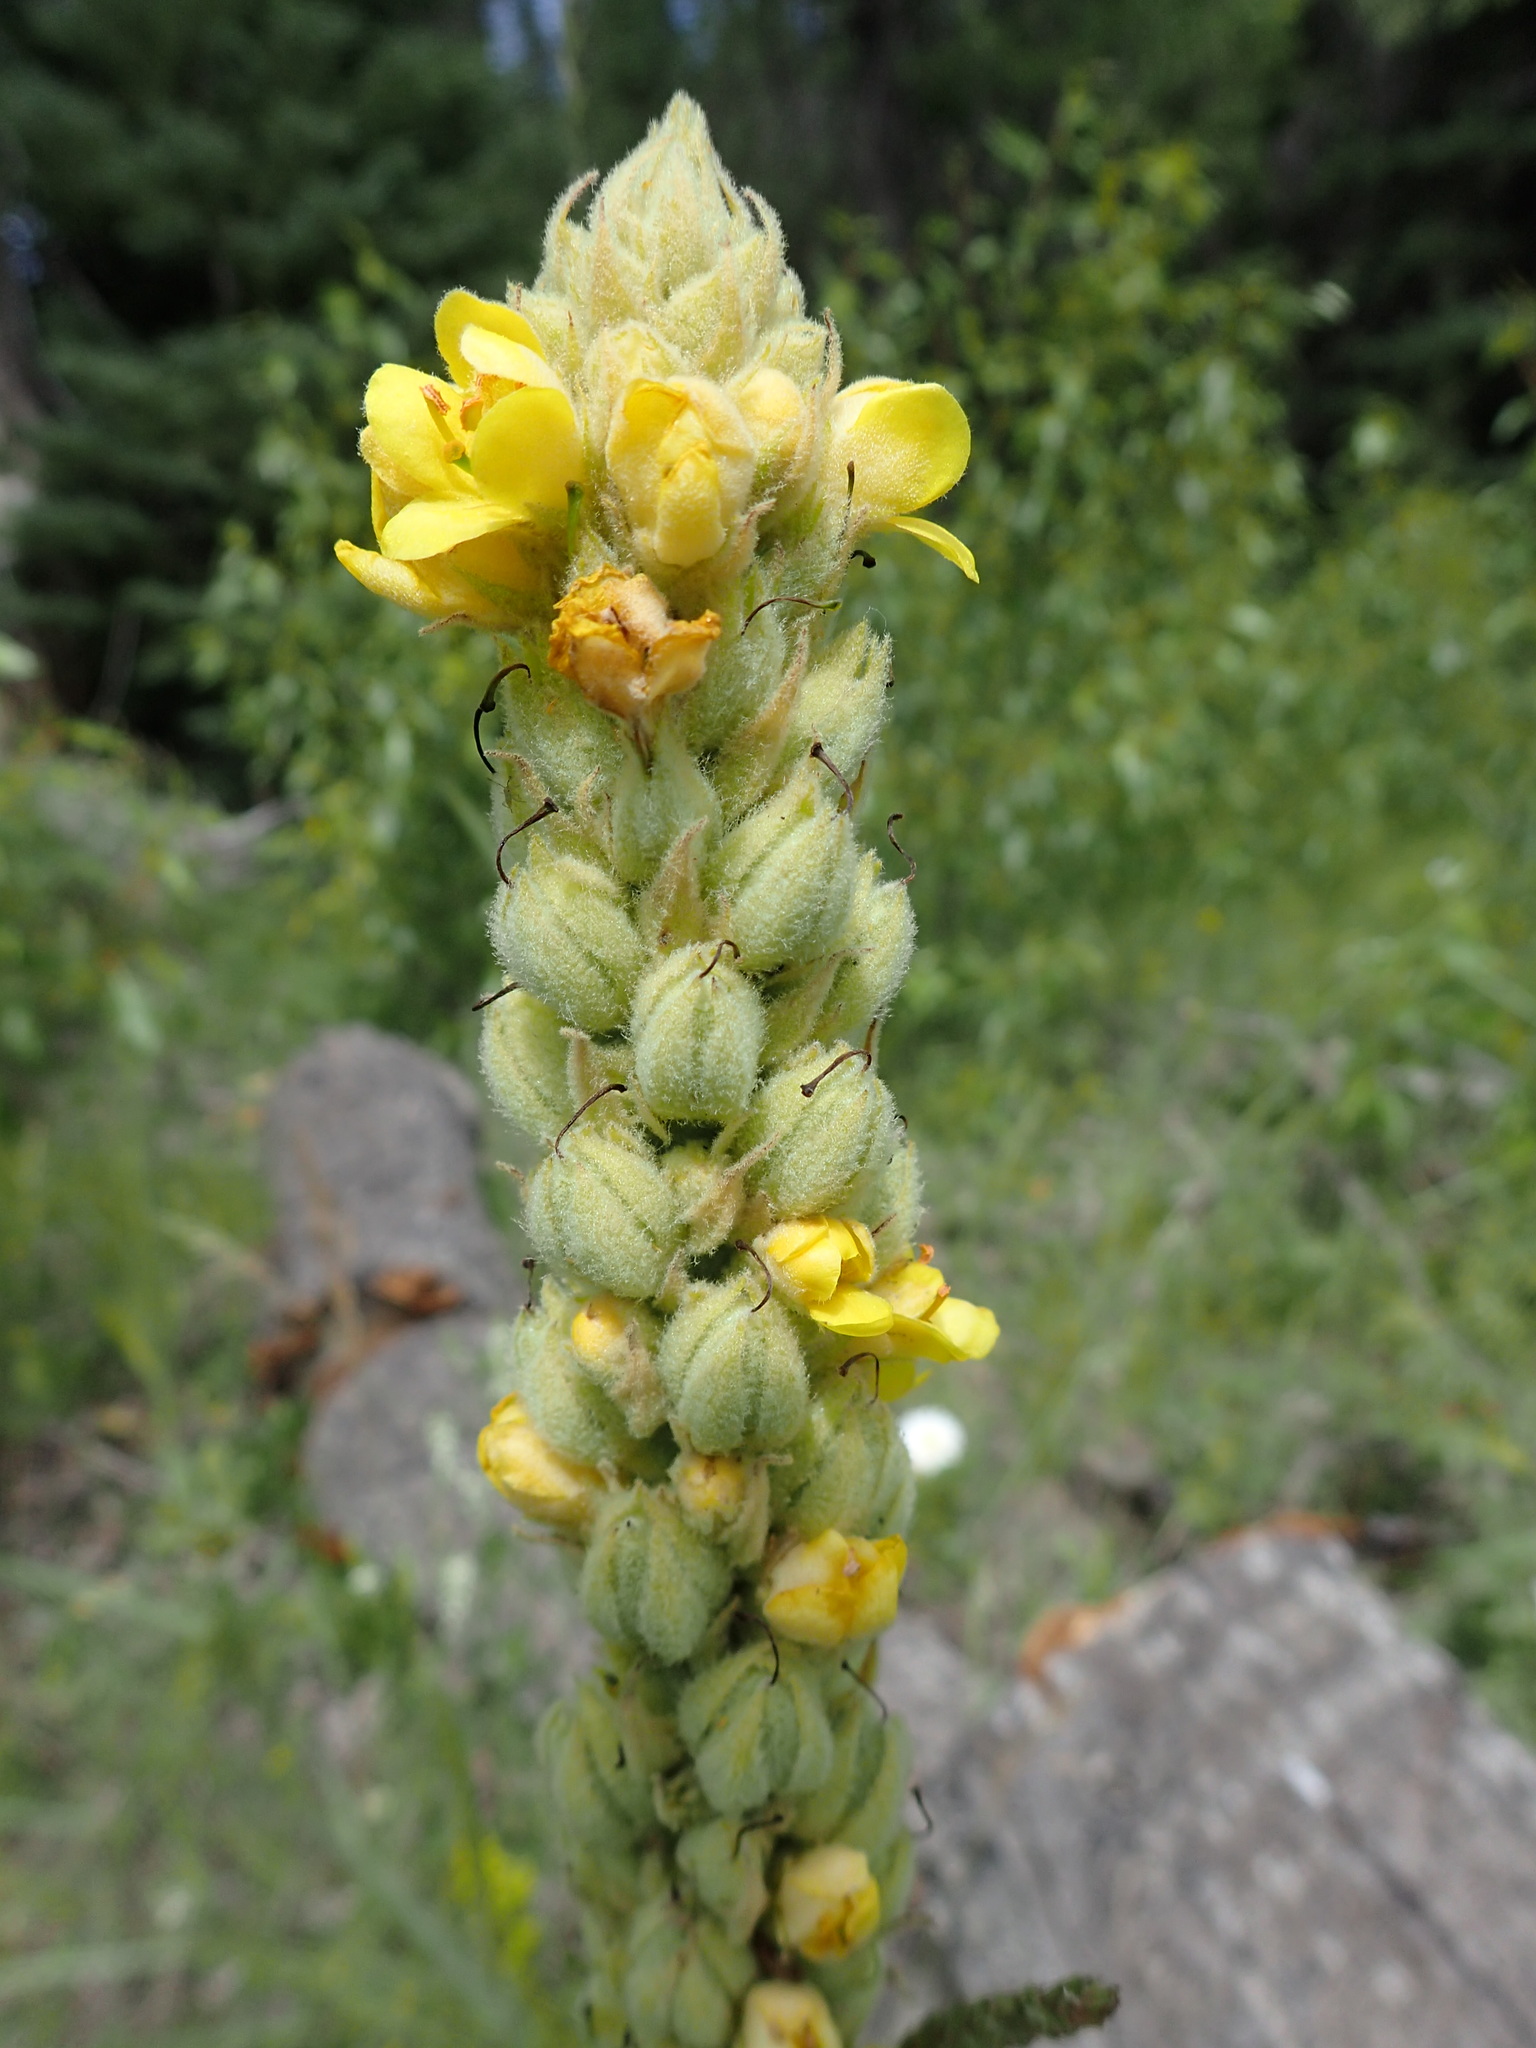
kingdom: Plantae
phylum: Tracheophyta
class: Magnoliopsida
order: Lamiales
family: Scrophulariaceae
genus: Verbascum
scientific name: Verbascum thapsus
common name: Common mullein
